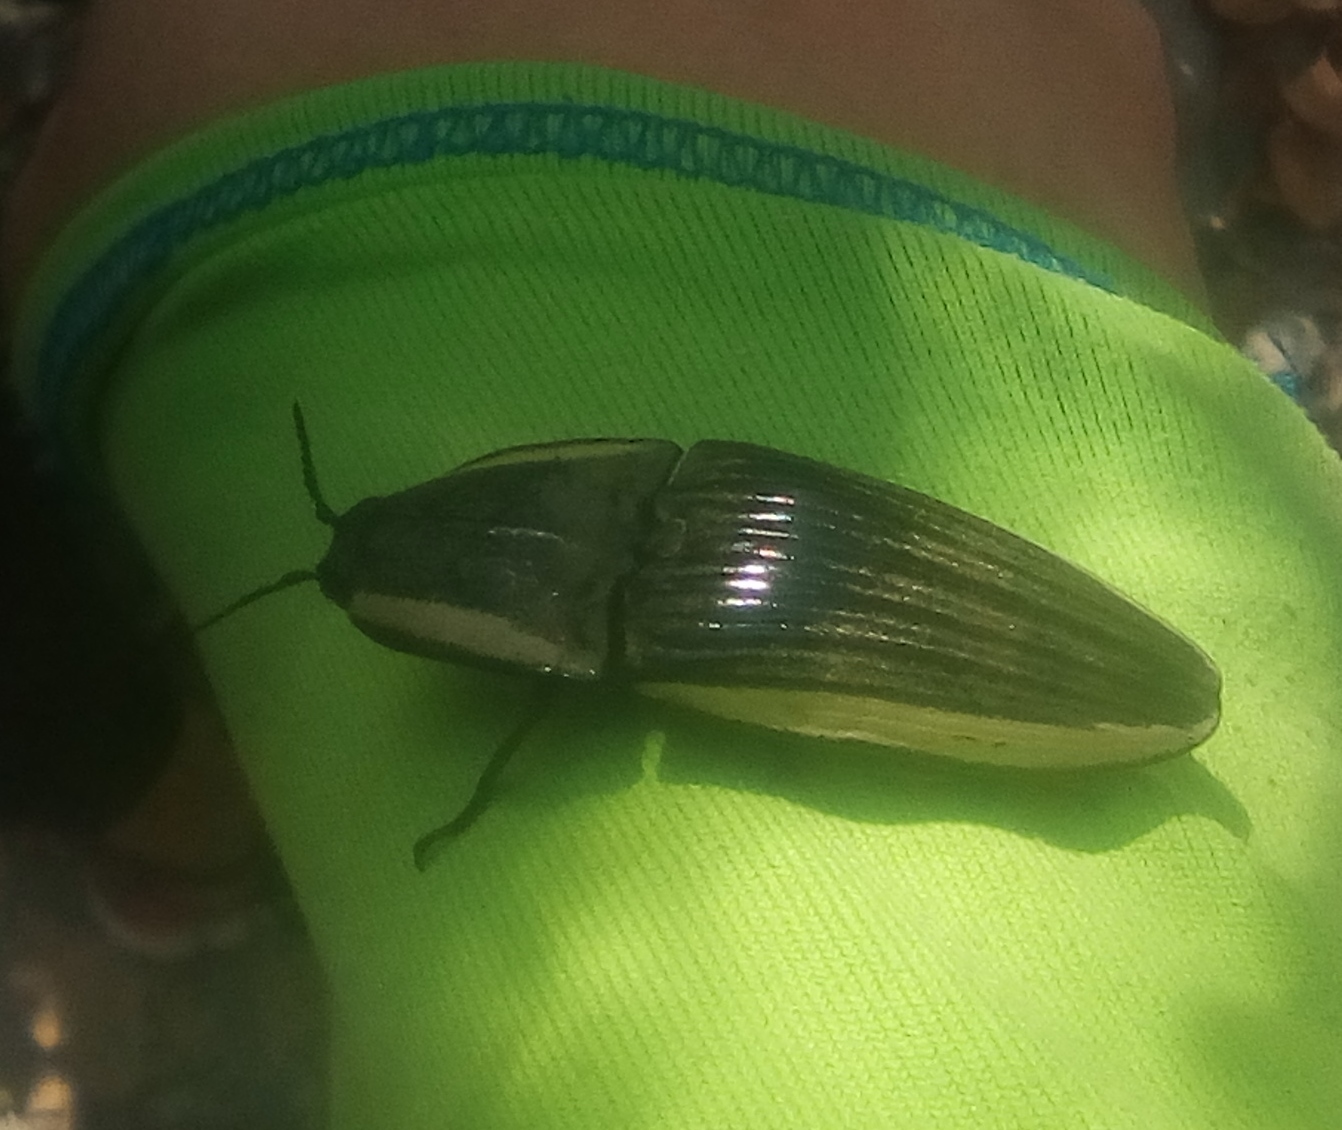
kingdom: Animalia
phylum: Arthropoda
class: Insecta
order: Coleoptera
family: Elateridae
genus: Chalcolepidius
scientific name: Chalcolepidius
